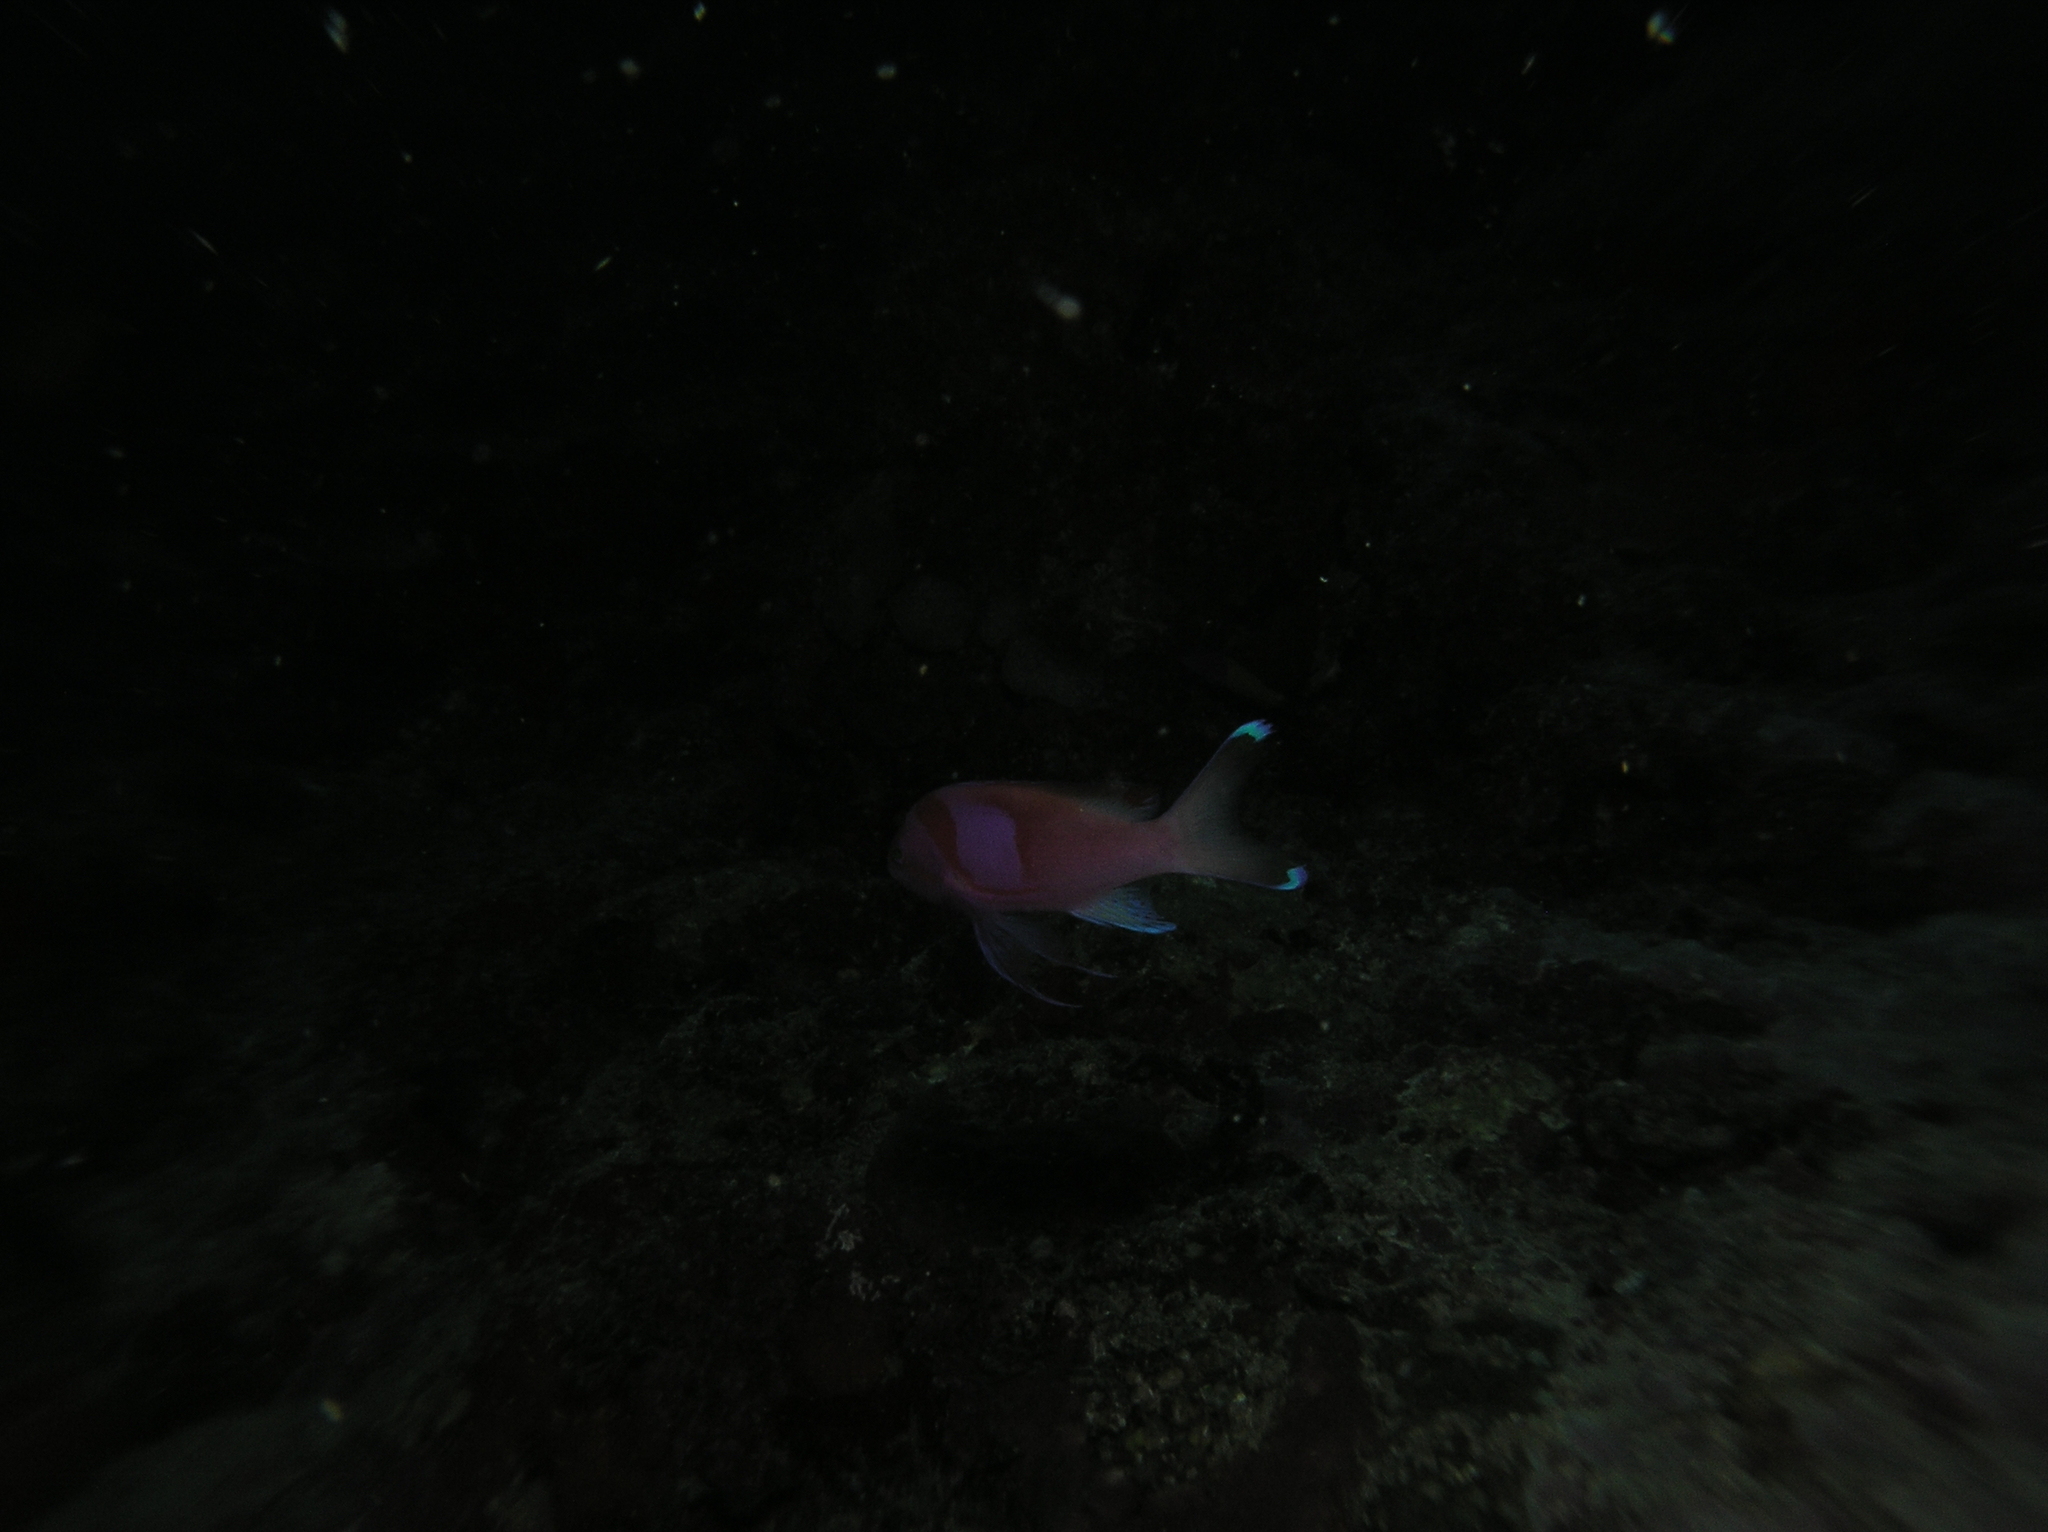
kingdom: Animalia
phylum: Chordata
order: Perciformes
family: Serranidae
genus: Pseudanthias
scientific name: Pseudanthias pleurotaenia
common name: Mirror basslet
